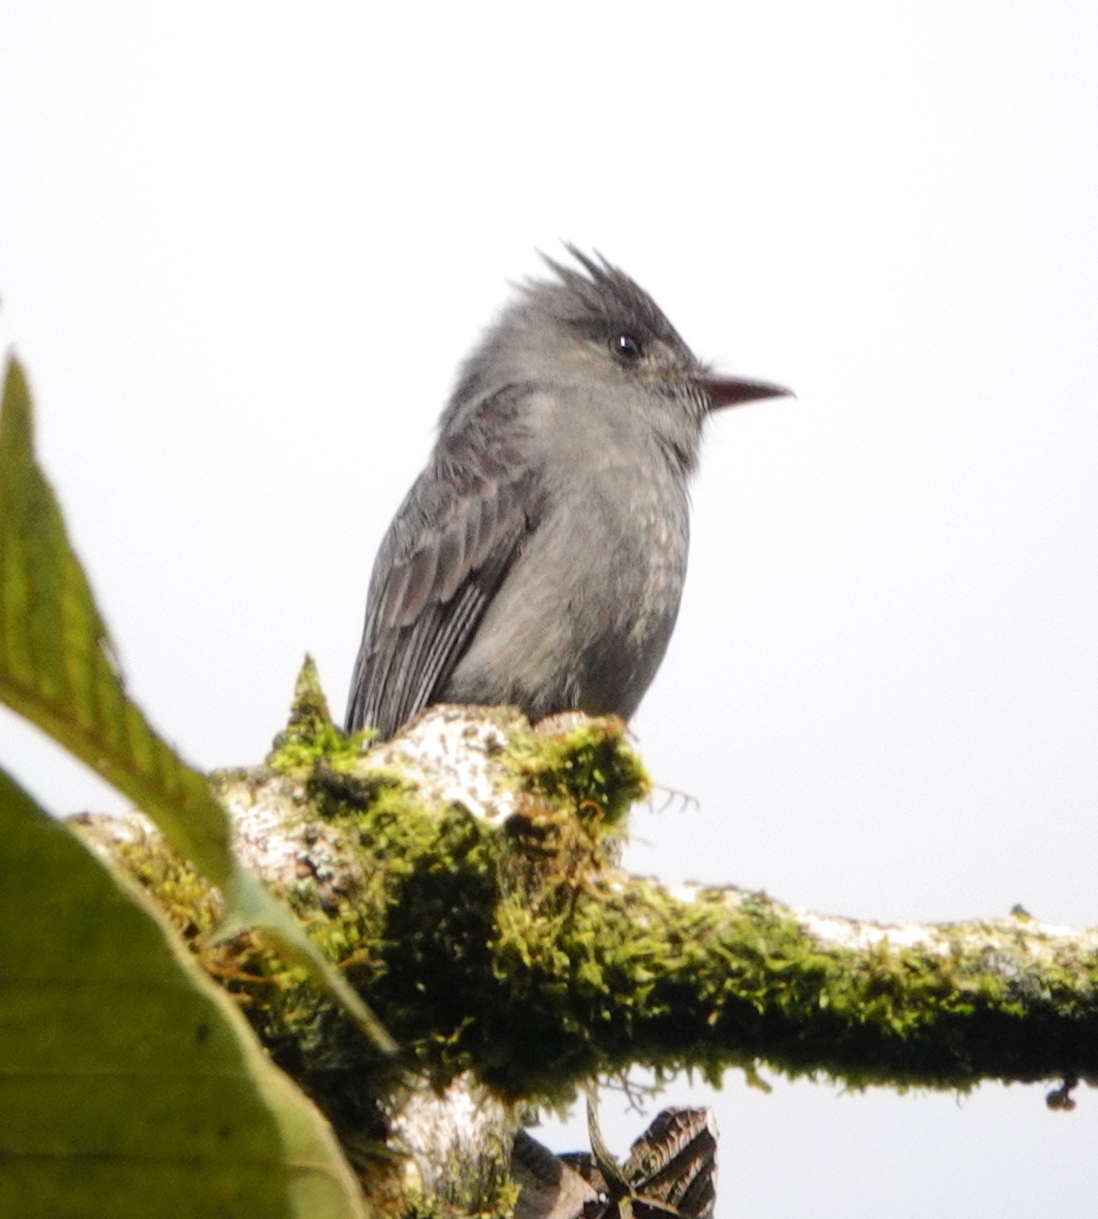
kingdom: Animalia
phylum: Chordata
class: Aves
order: Passeriformes
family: Tyrannidae
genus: Contopus
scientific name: Contopus fumigatus
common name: Smoke-colored pewee
